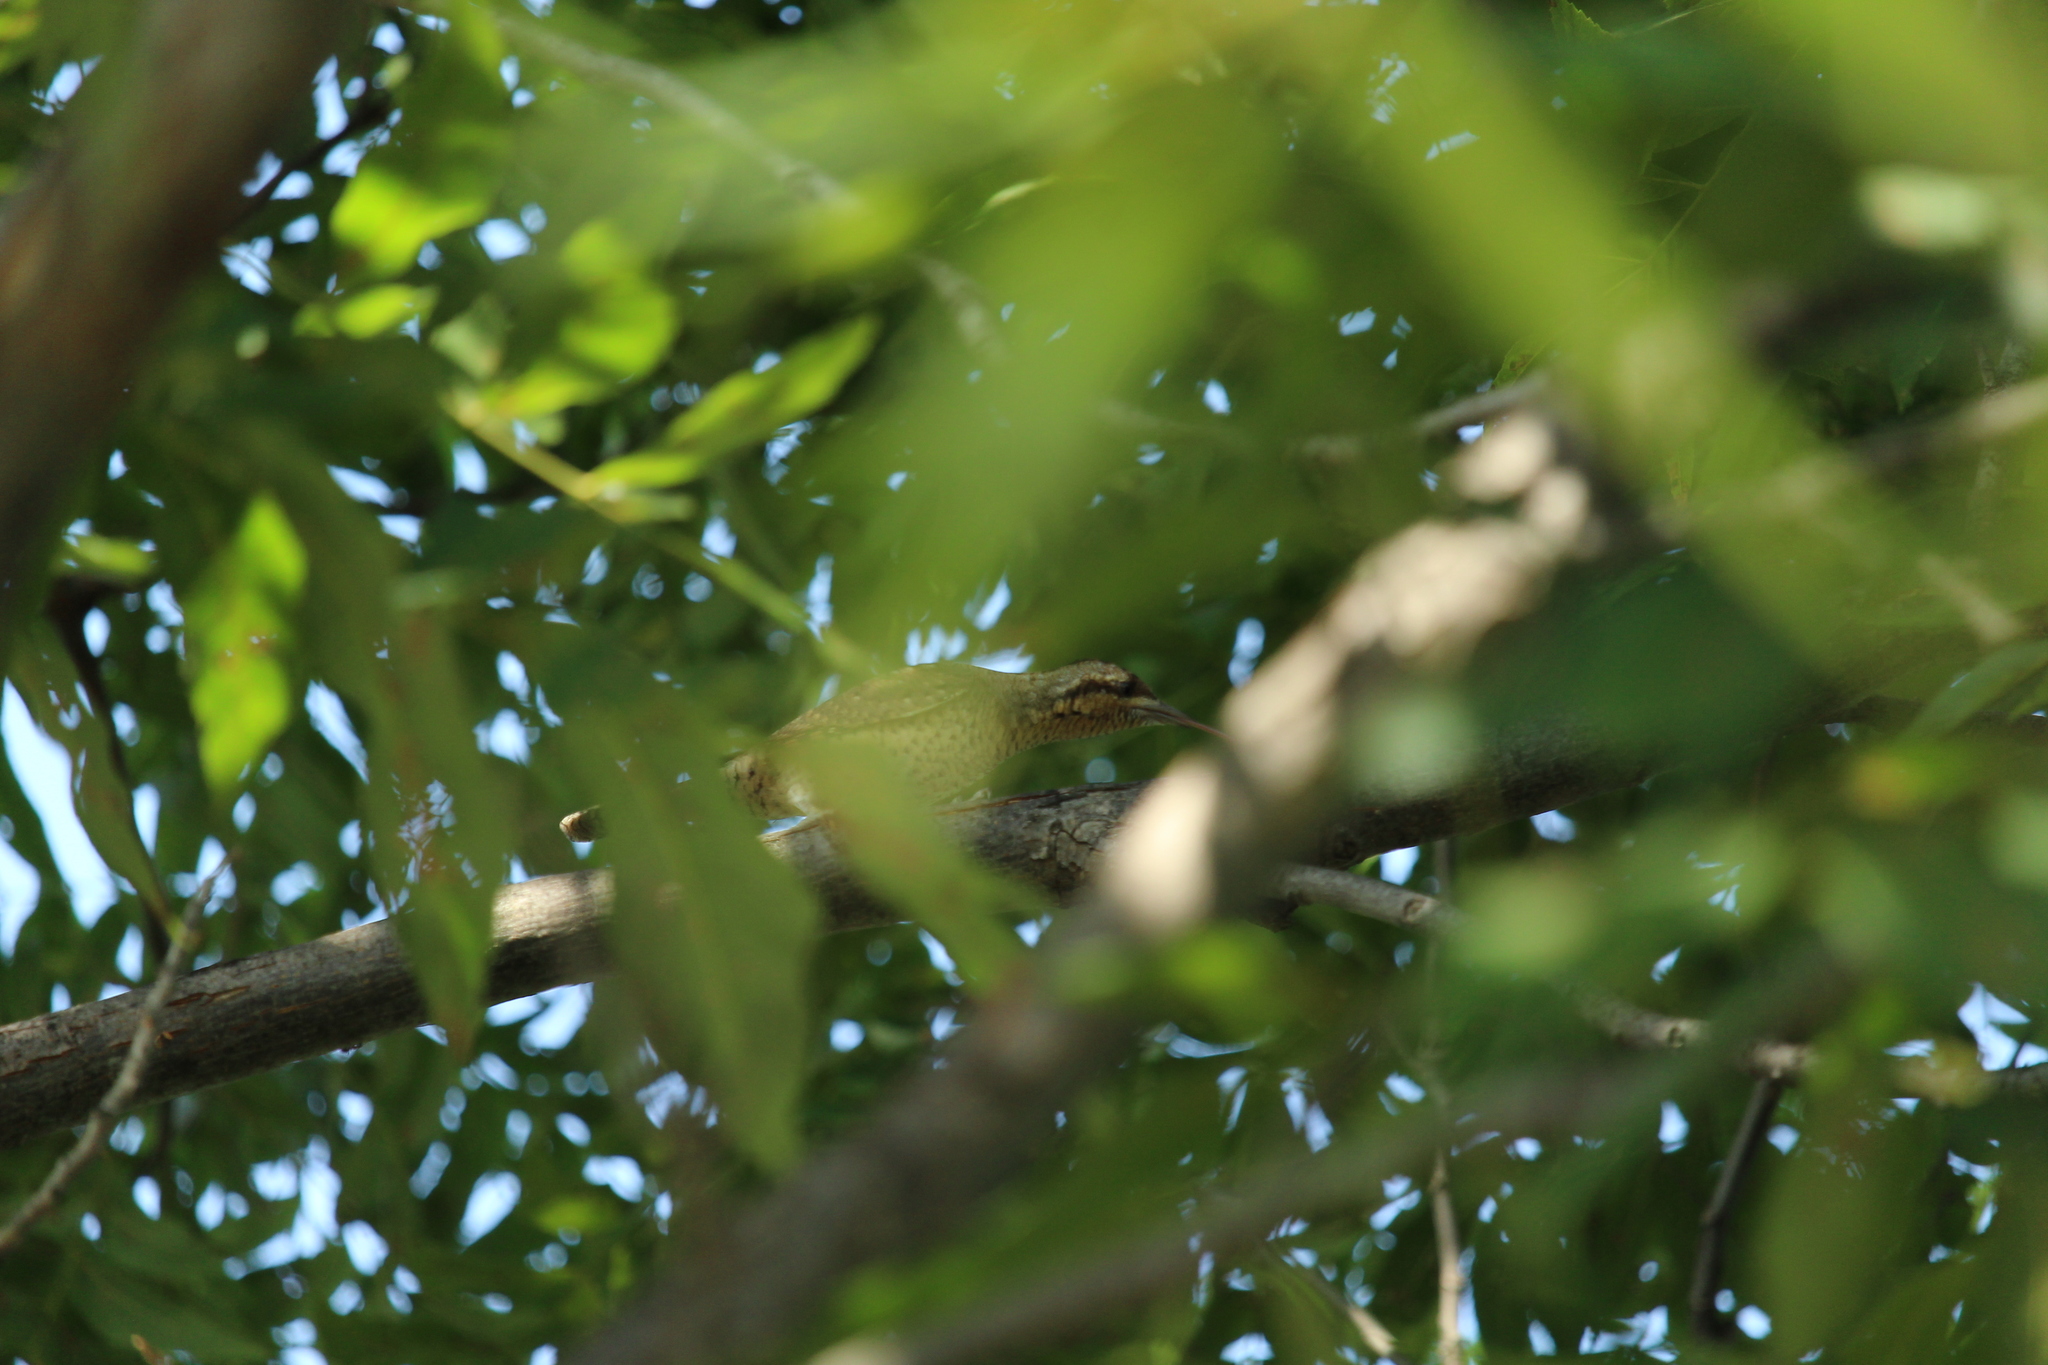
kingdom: Animalia
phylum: Chordata
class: Aves
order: Piciformes
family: Picidae
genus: Jynx
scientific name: Jynx torquilla
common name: Eurasian wryneck
